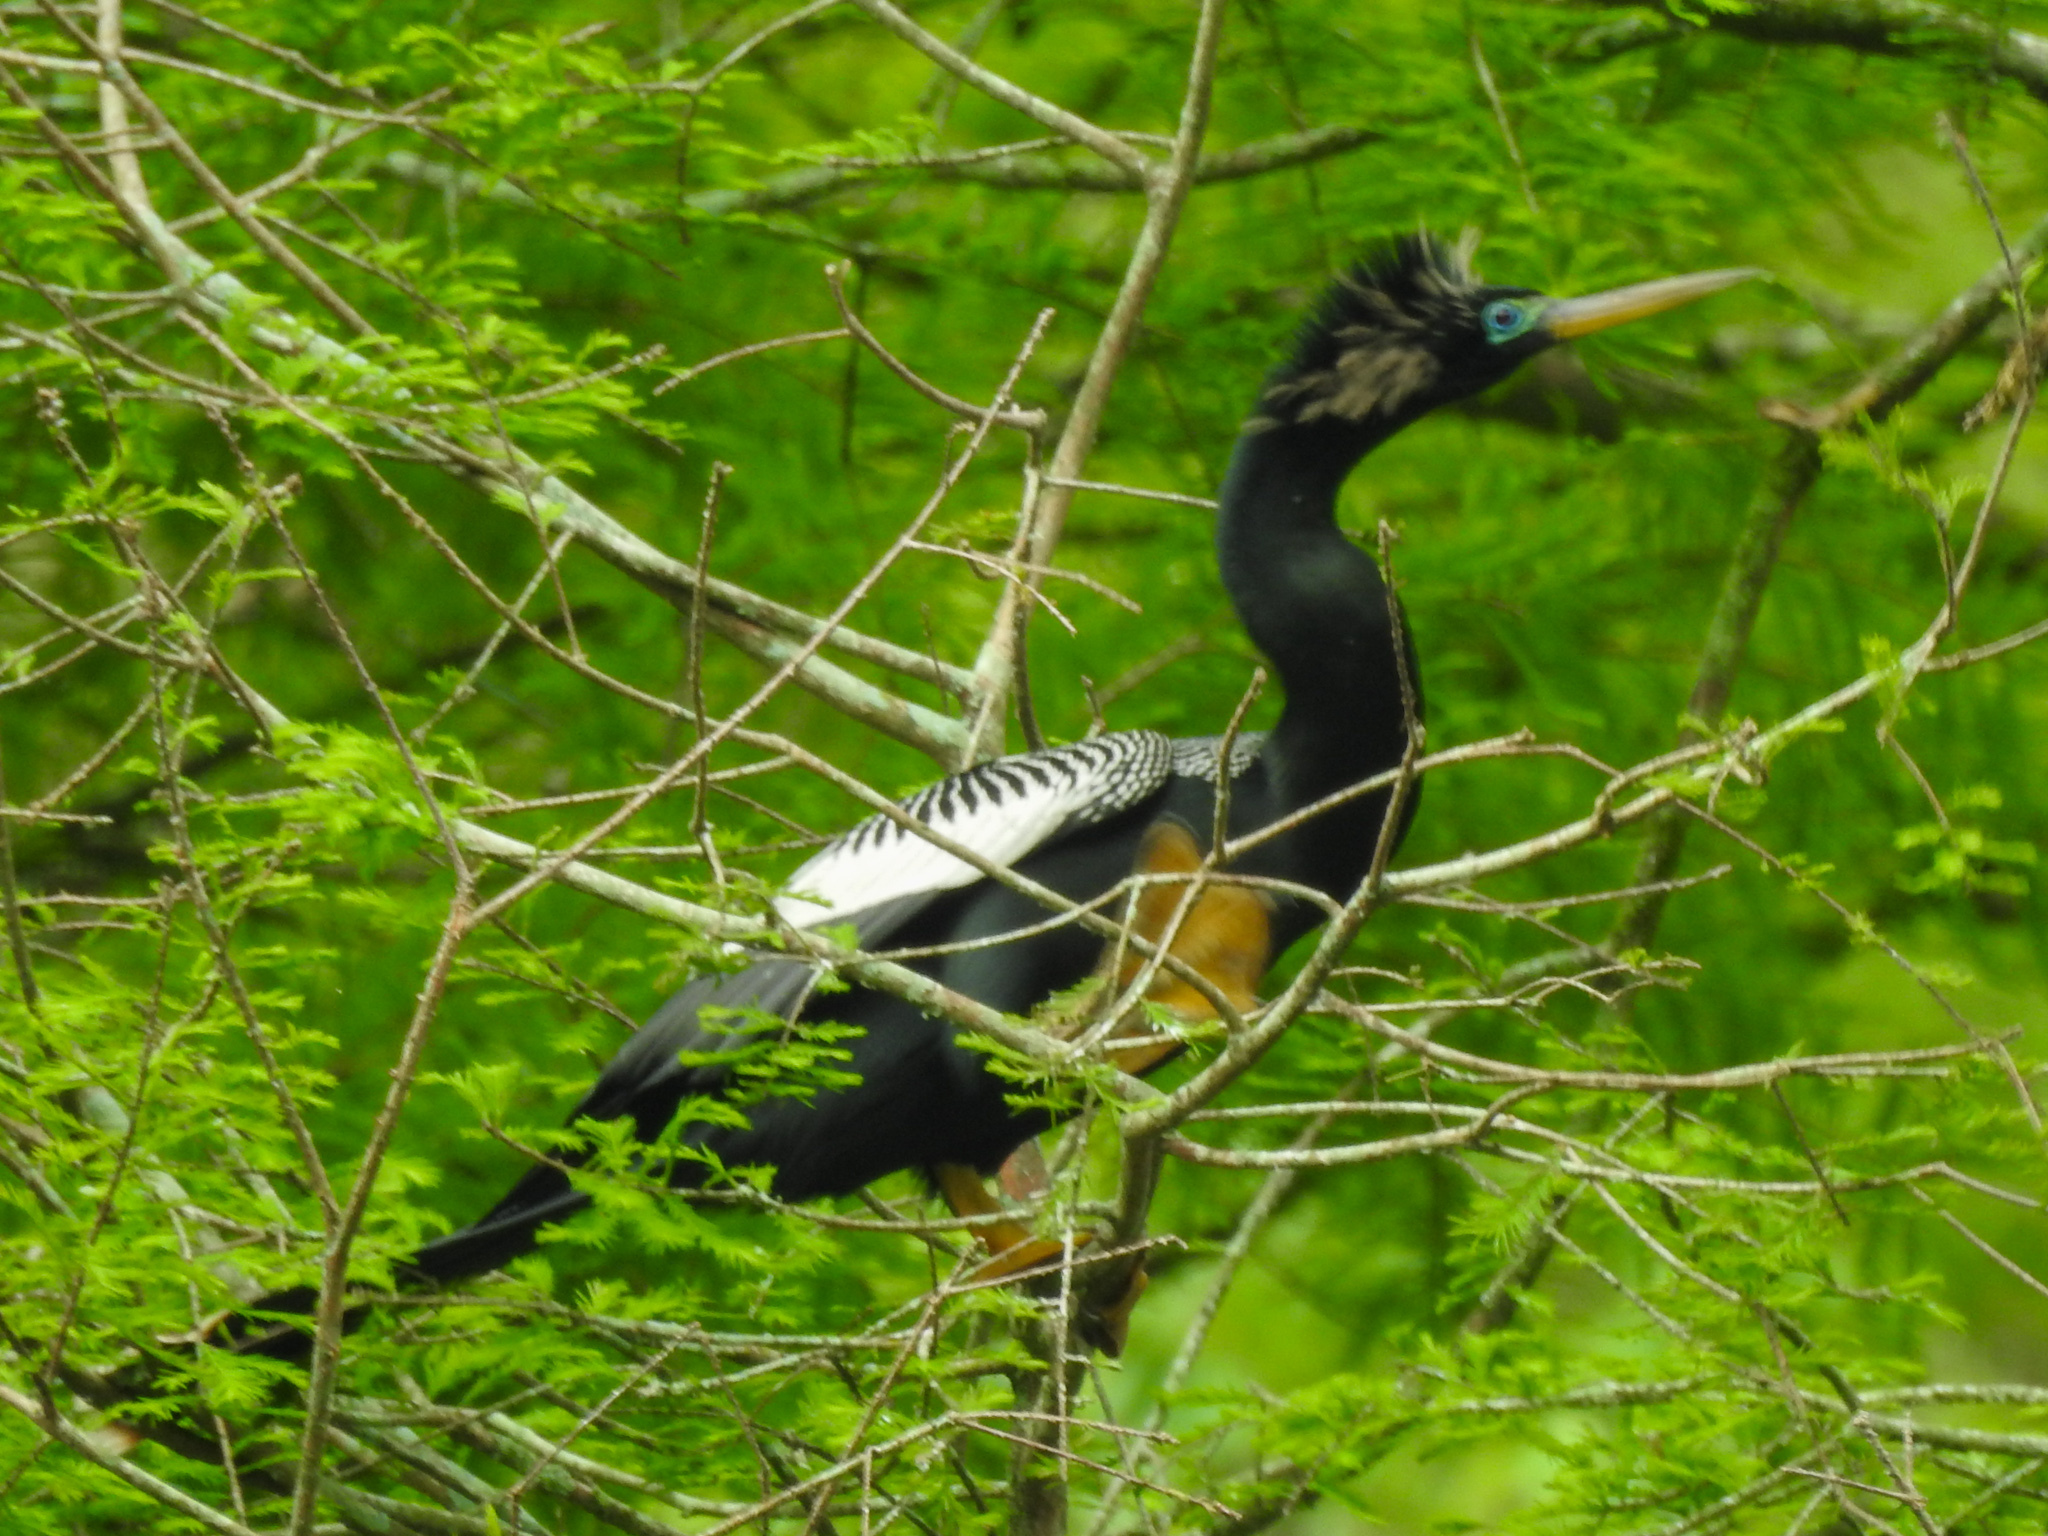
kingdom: Animalia
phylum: Chordata
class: Aves
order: Suliformes
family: Anhingidae
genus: Anhinga
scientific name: Anhinga anhinga
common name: Anhinga
